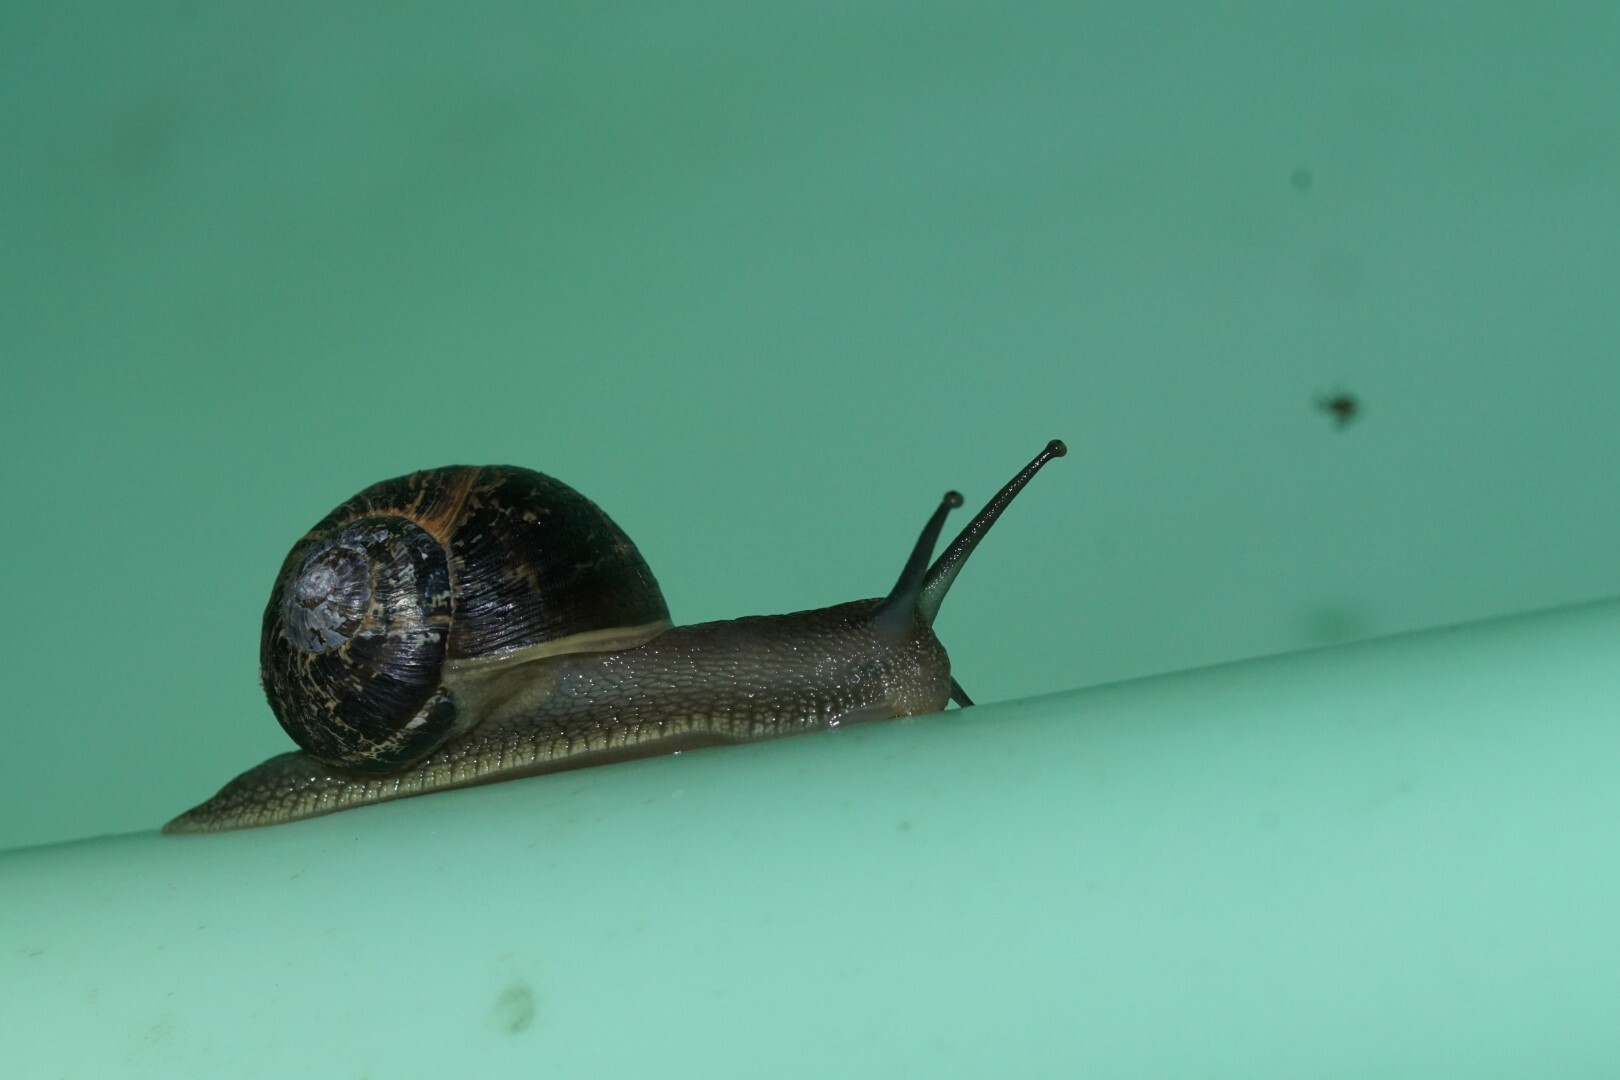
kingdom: Animalia
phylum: Mollusca
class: Gastropoda
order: Stylommatophora
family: Helicidae
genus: Cornu
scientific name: Cornu aspersum
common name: Brown garden snail
